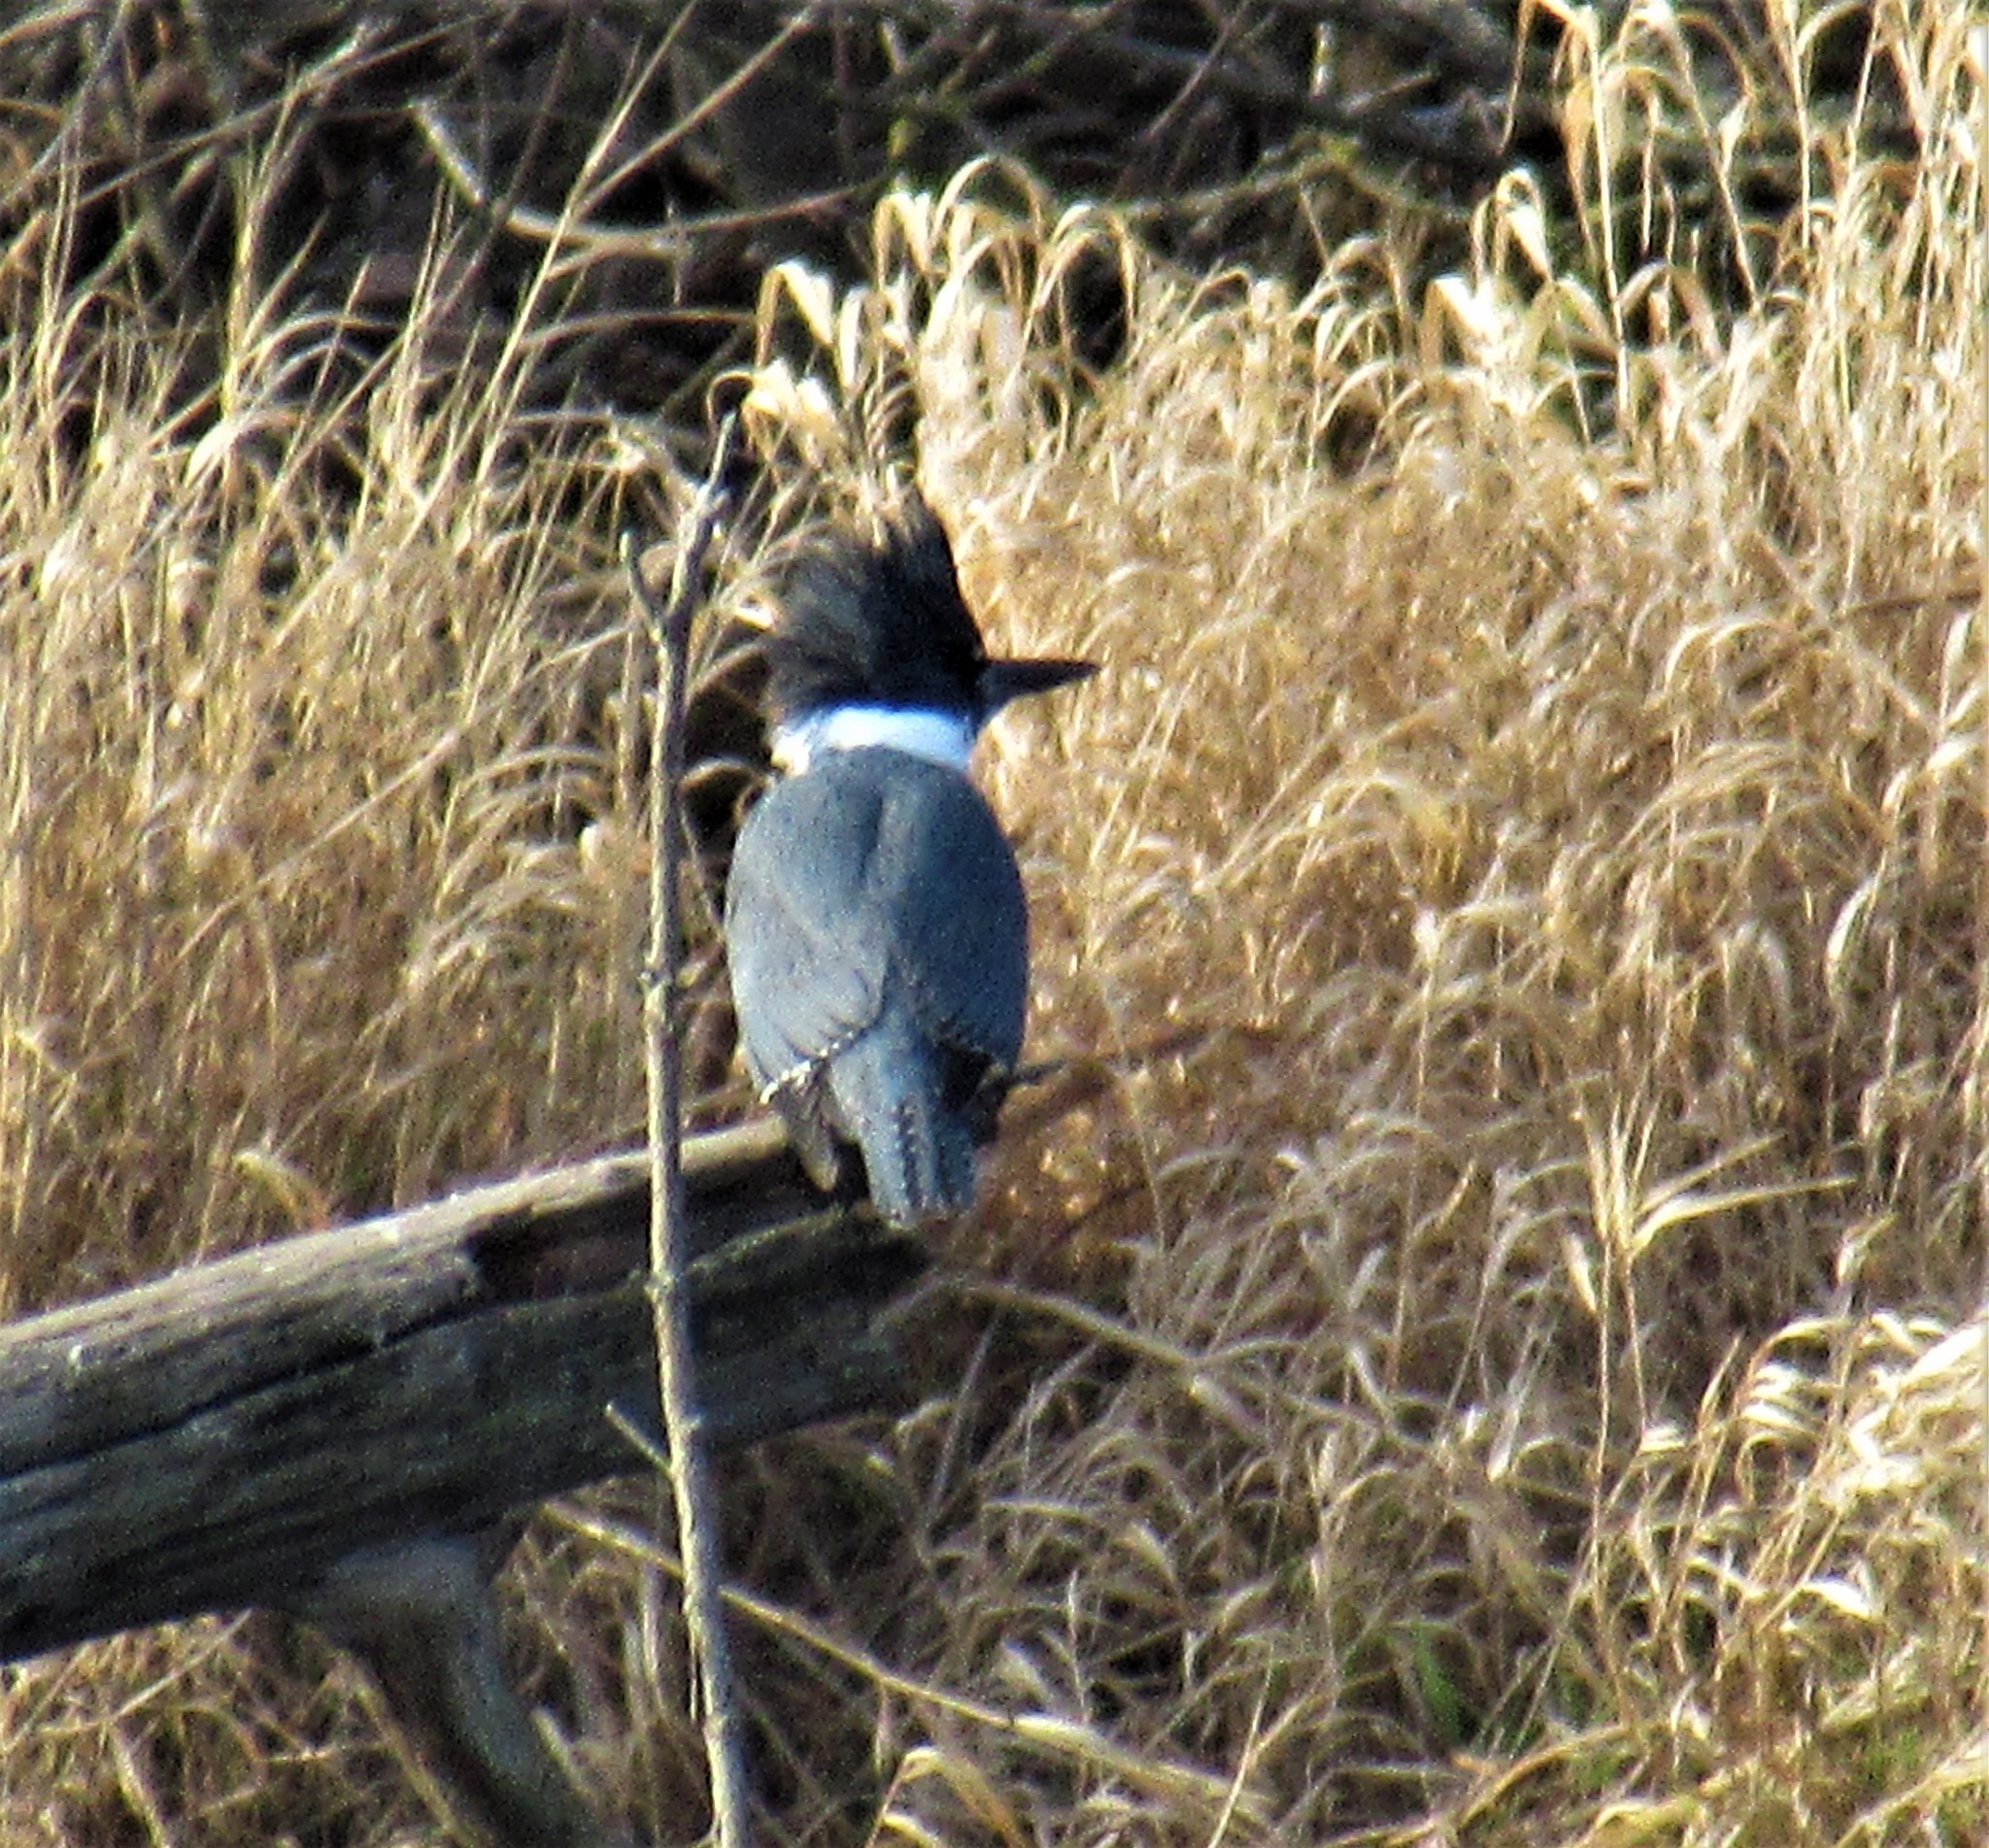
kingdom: Animalia
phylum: Chordata
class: Aves
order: Coraciiformes
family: Alcedinidae
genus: Megaceryle
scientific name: Megaceryle alcyon
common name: Belted kingfisher
